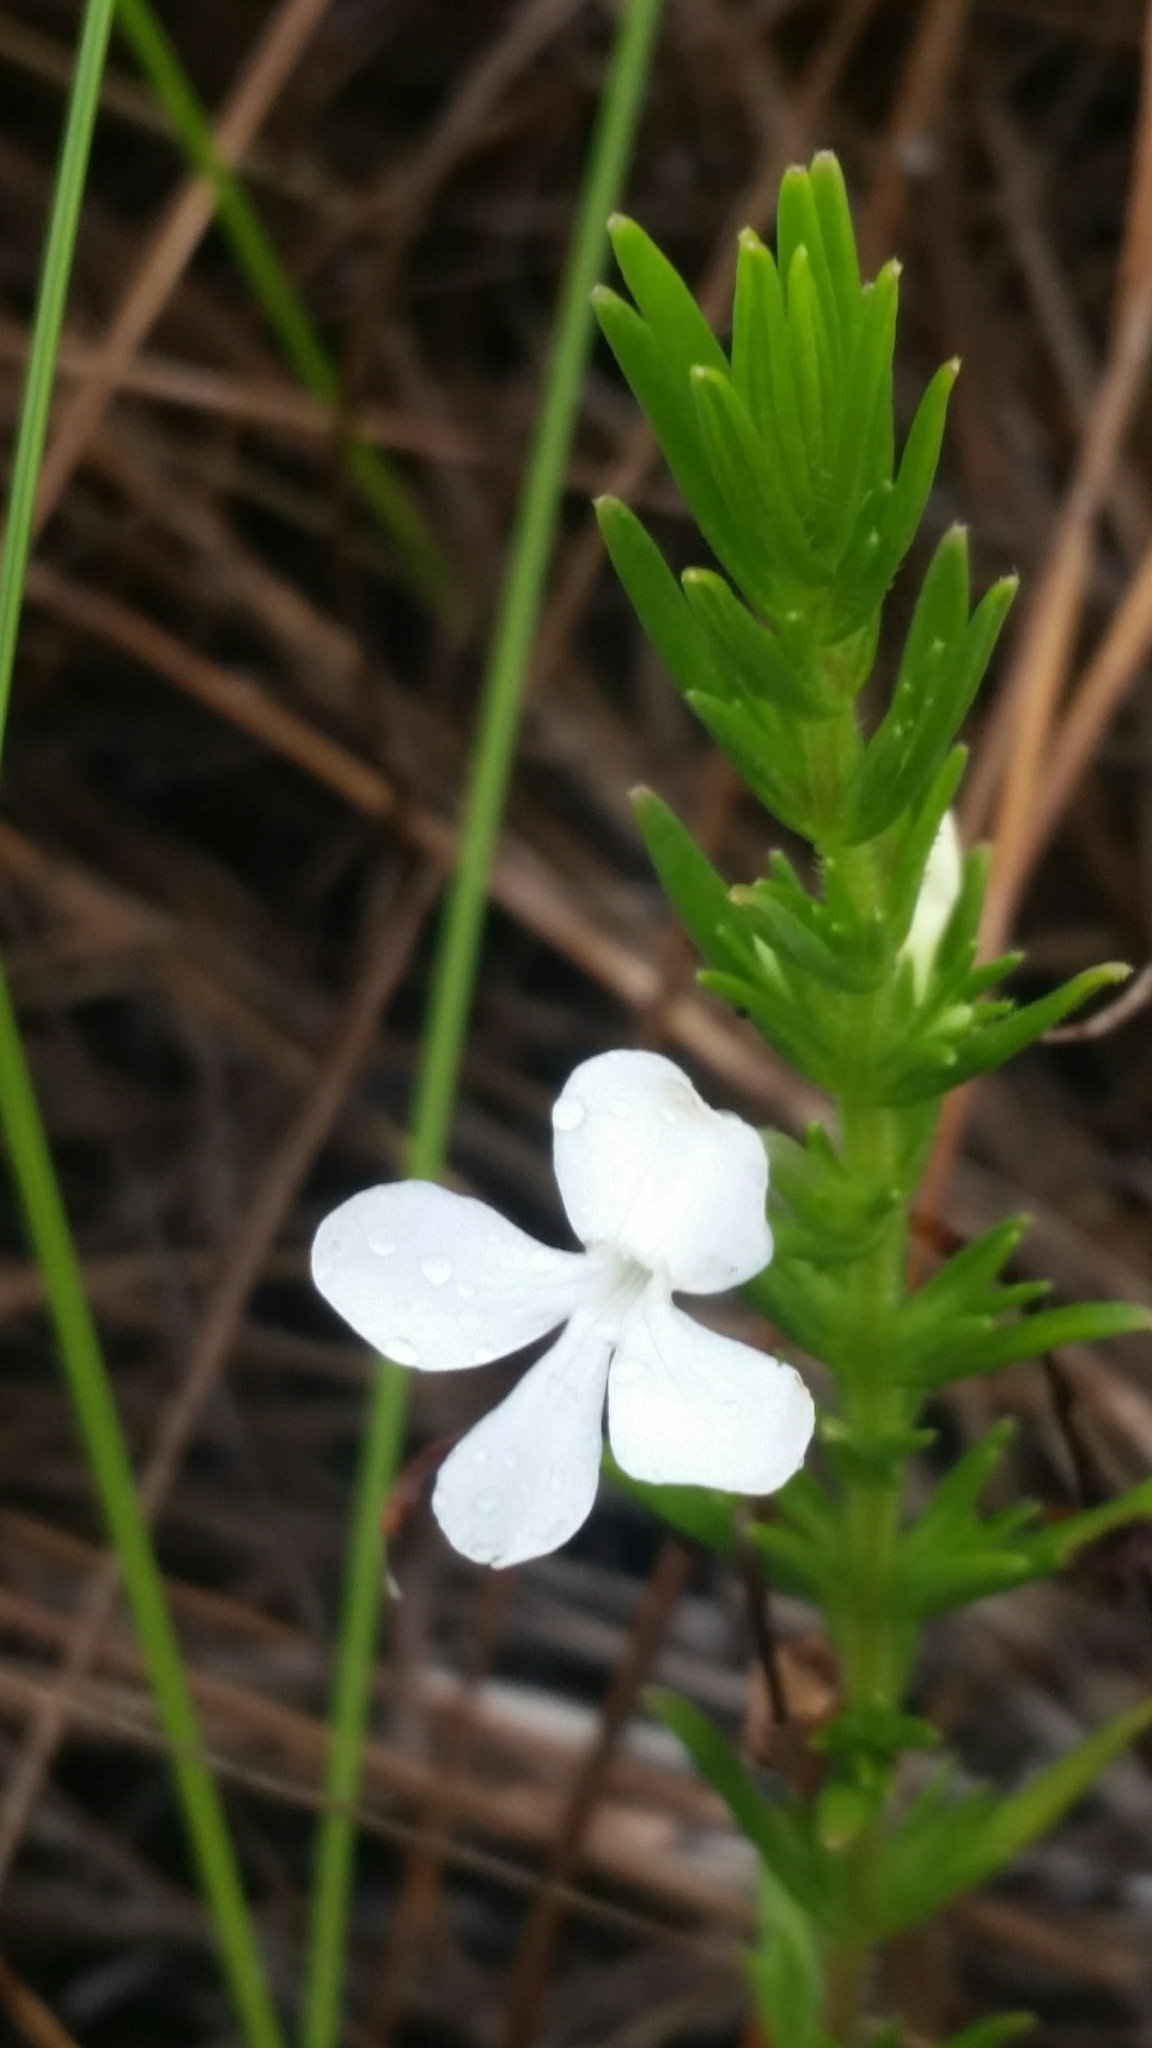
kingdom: Plantae
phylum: Tracheophyta
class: Magnoliopsida
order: Lamiales
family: Plantaginaceae
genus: Gratiola
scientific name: Gratiola hispida
